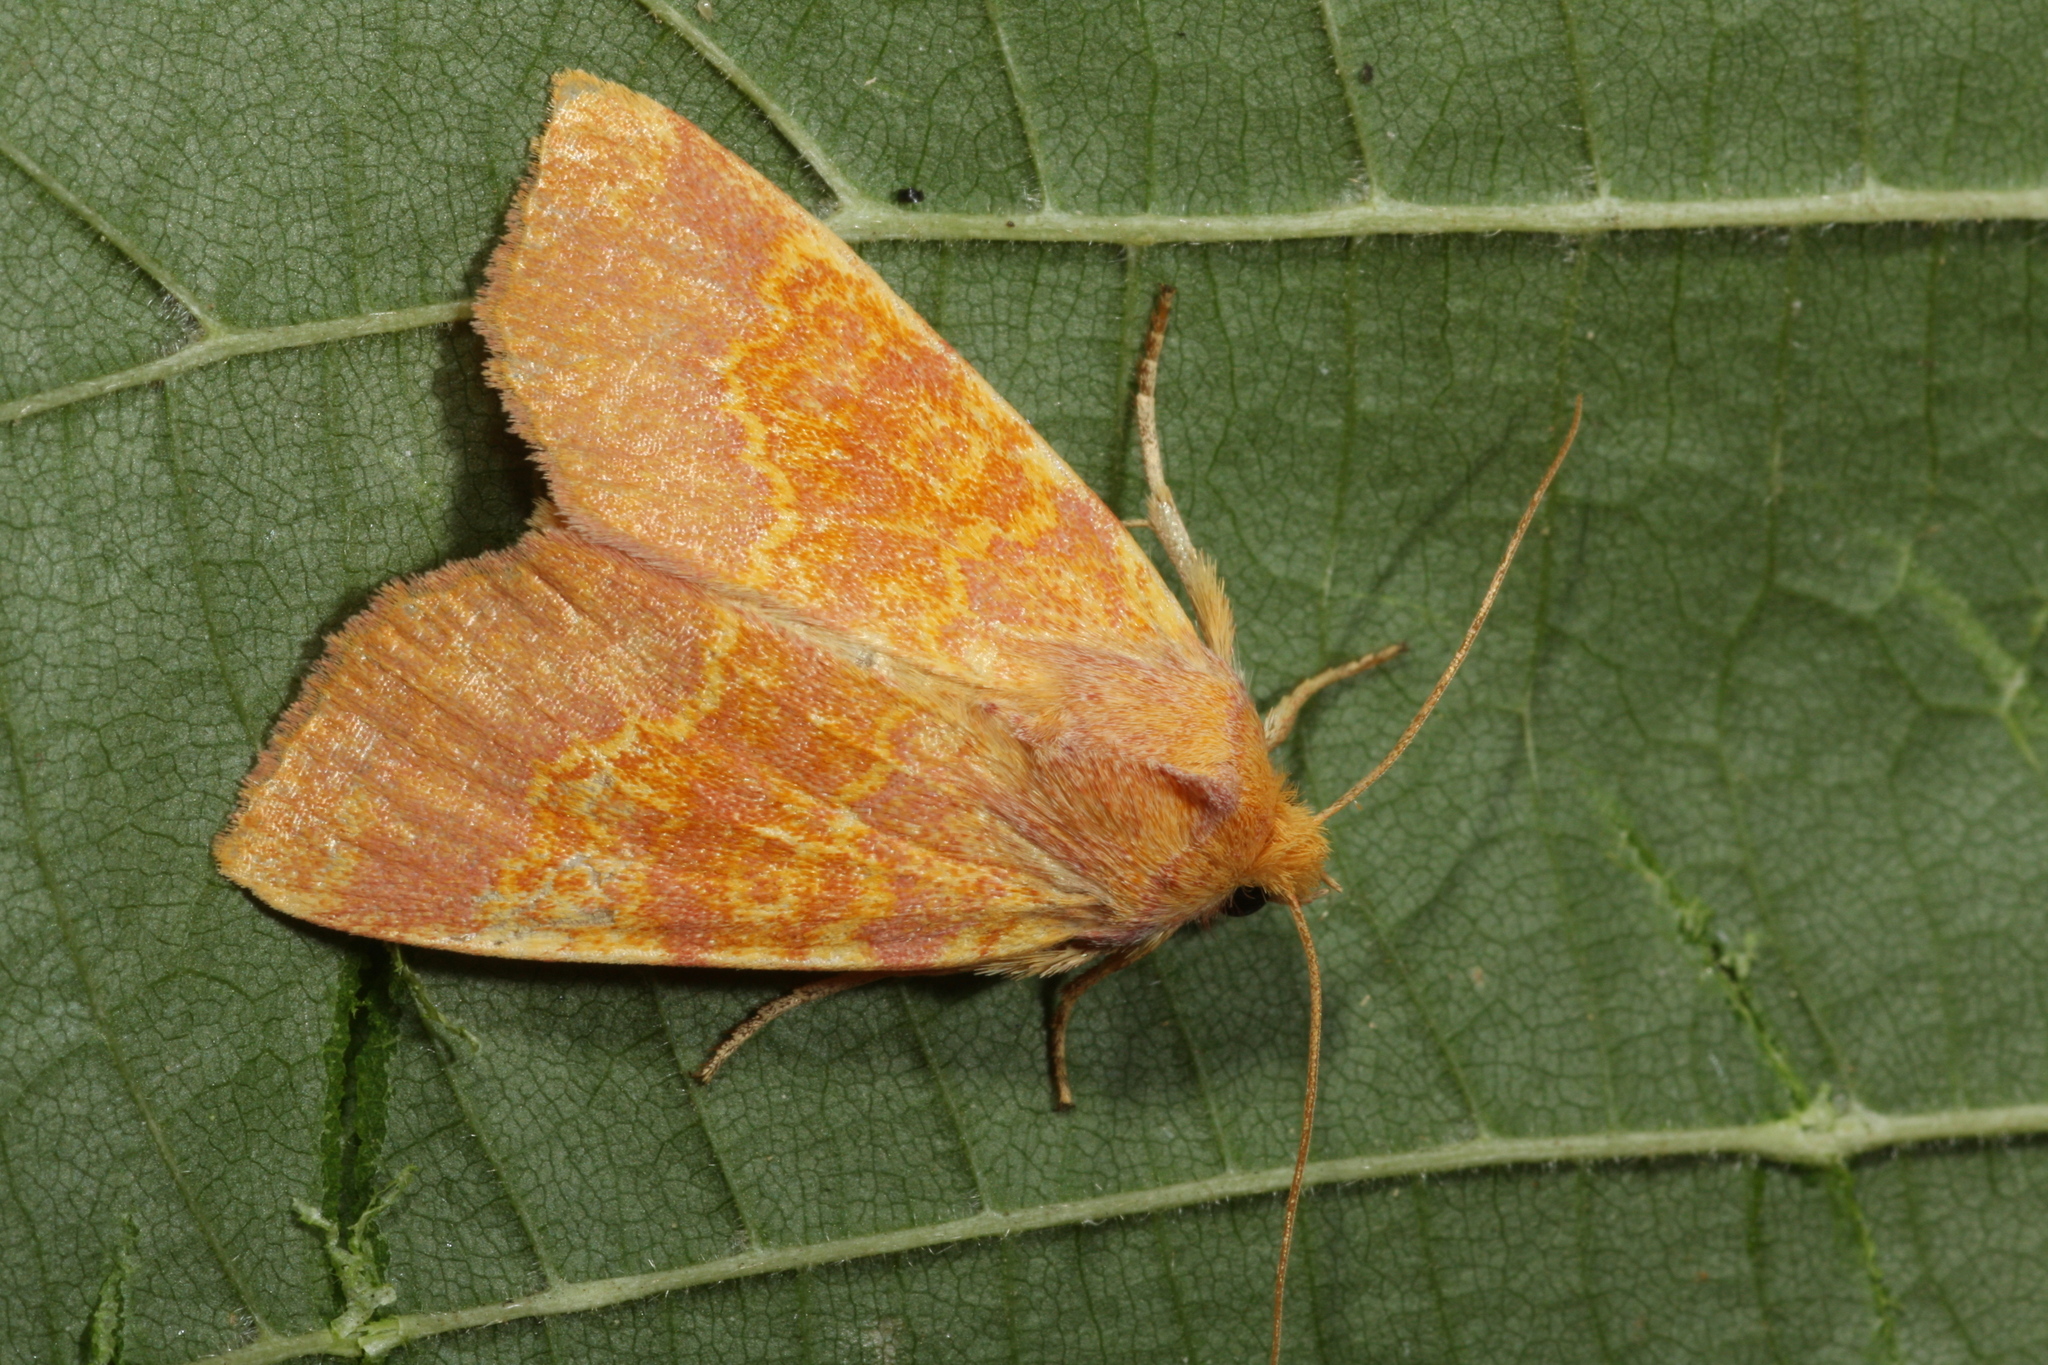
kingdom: Animalia
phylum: Arthropoda
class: Insecta
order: Lepidoptera
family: Noctuidae
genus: Tiliacea
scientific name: Tiliacea aurago
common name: Barred sallow
